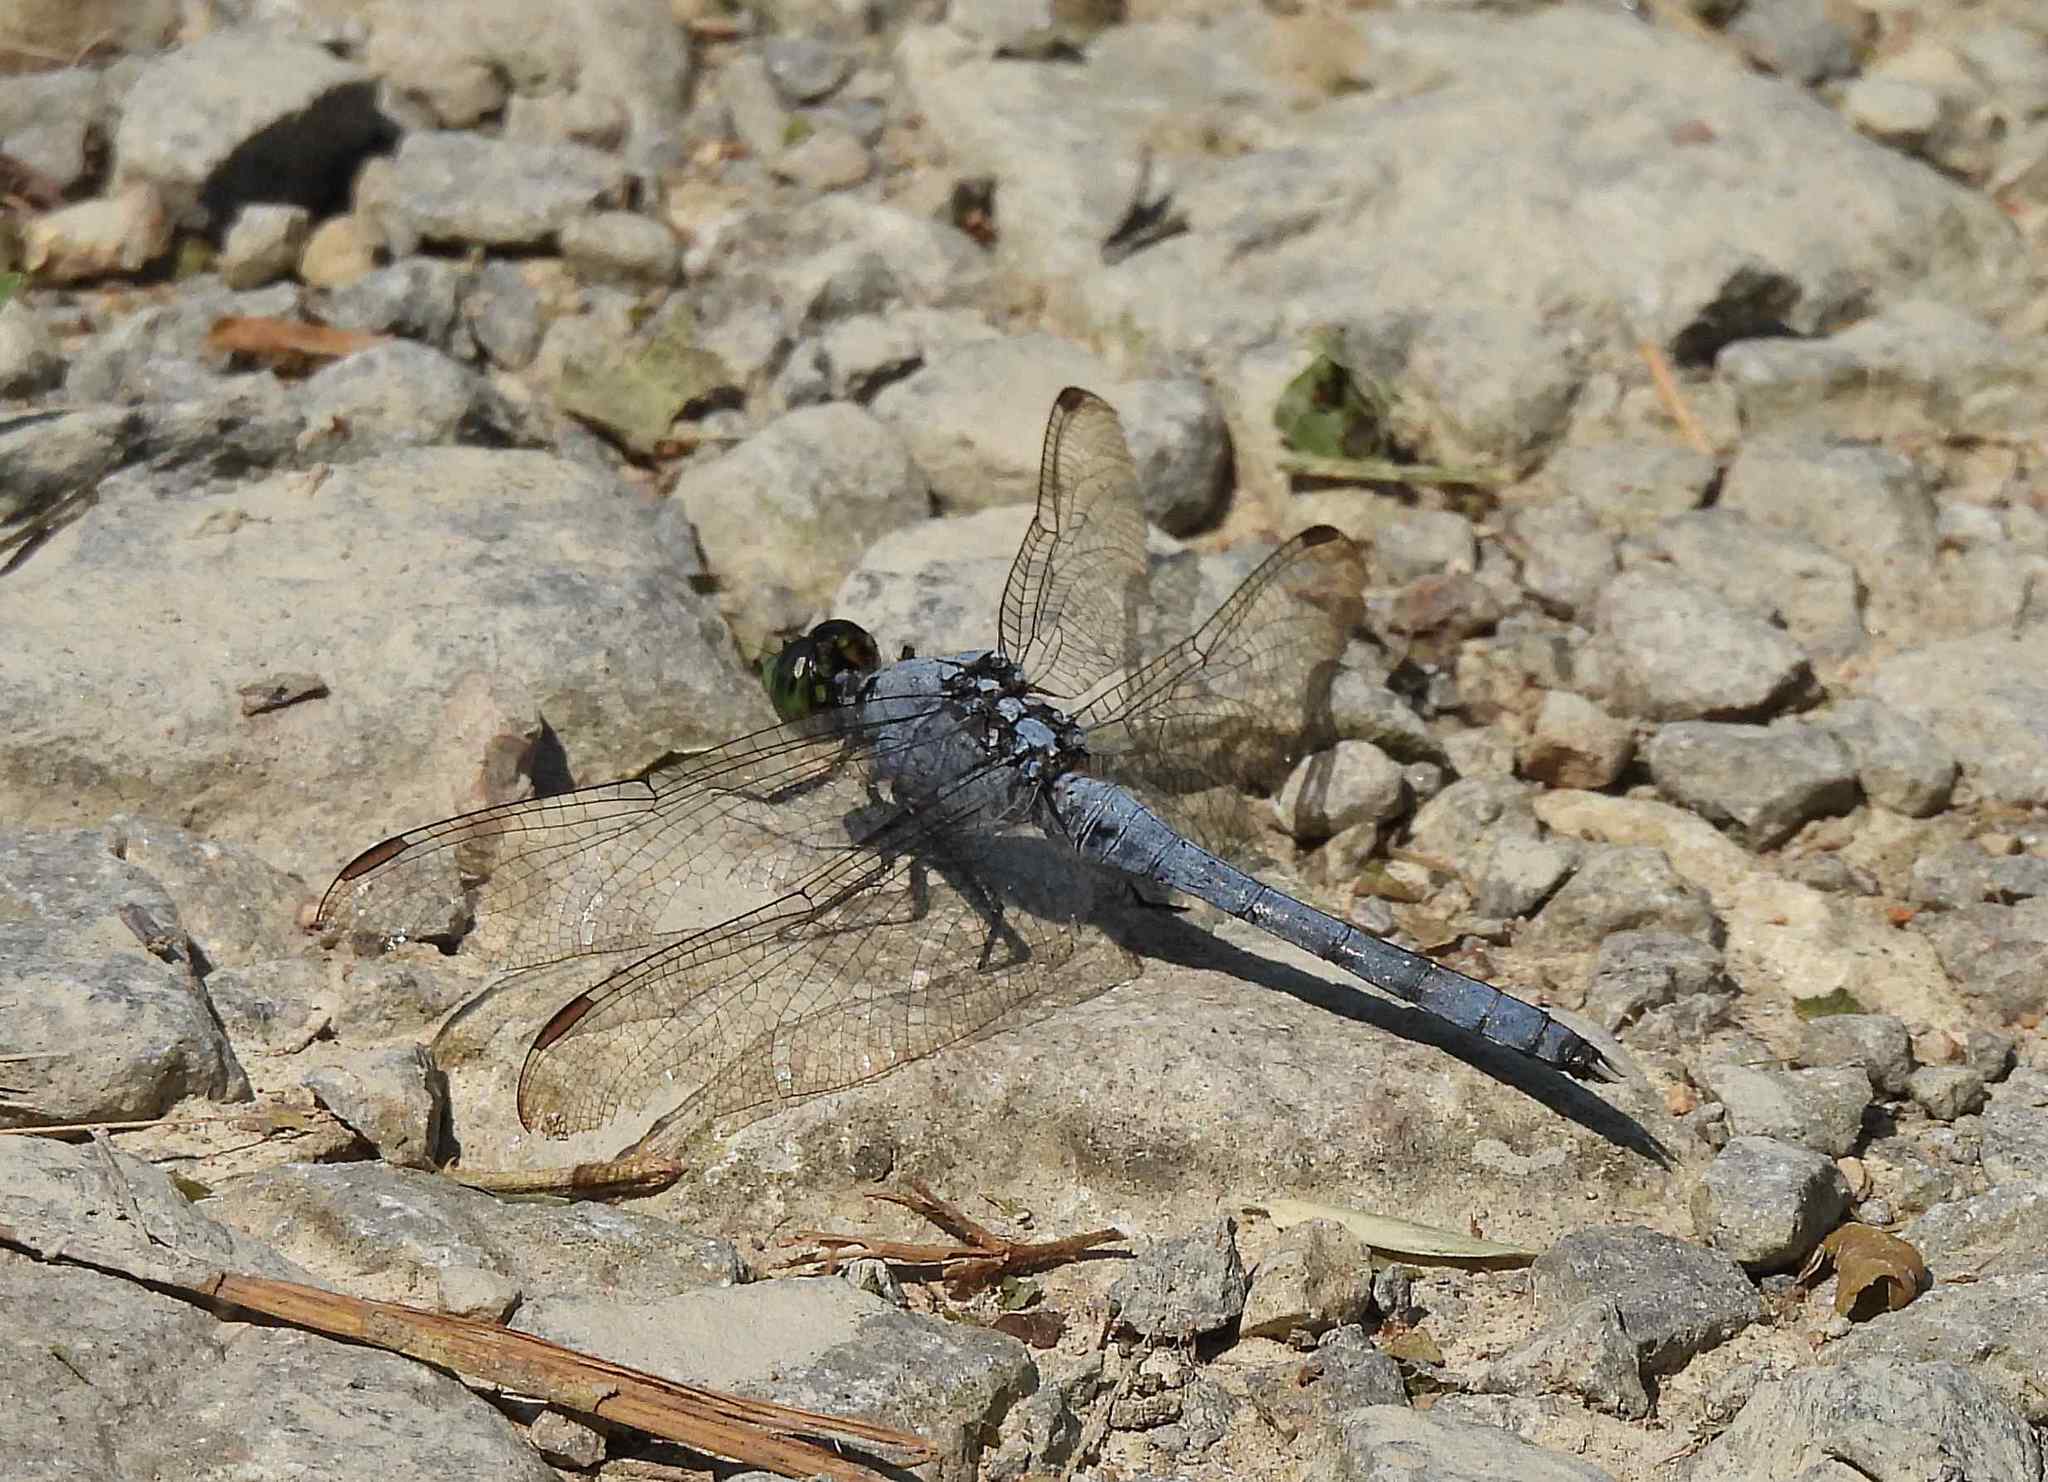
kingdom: Animalia
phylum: Arthropoda
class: Insecta
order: Odonata
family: Libellulidae
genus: Erythemis
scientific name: Erythemis simplicicollis
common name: Eastern pondhawk
